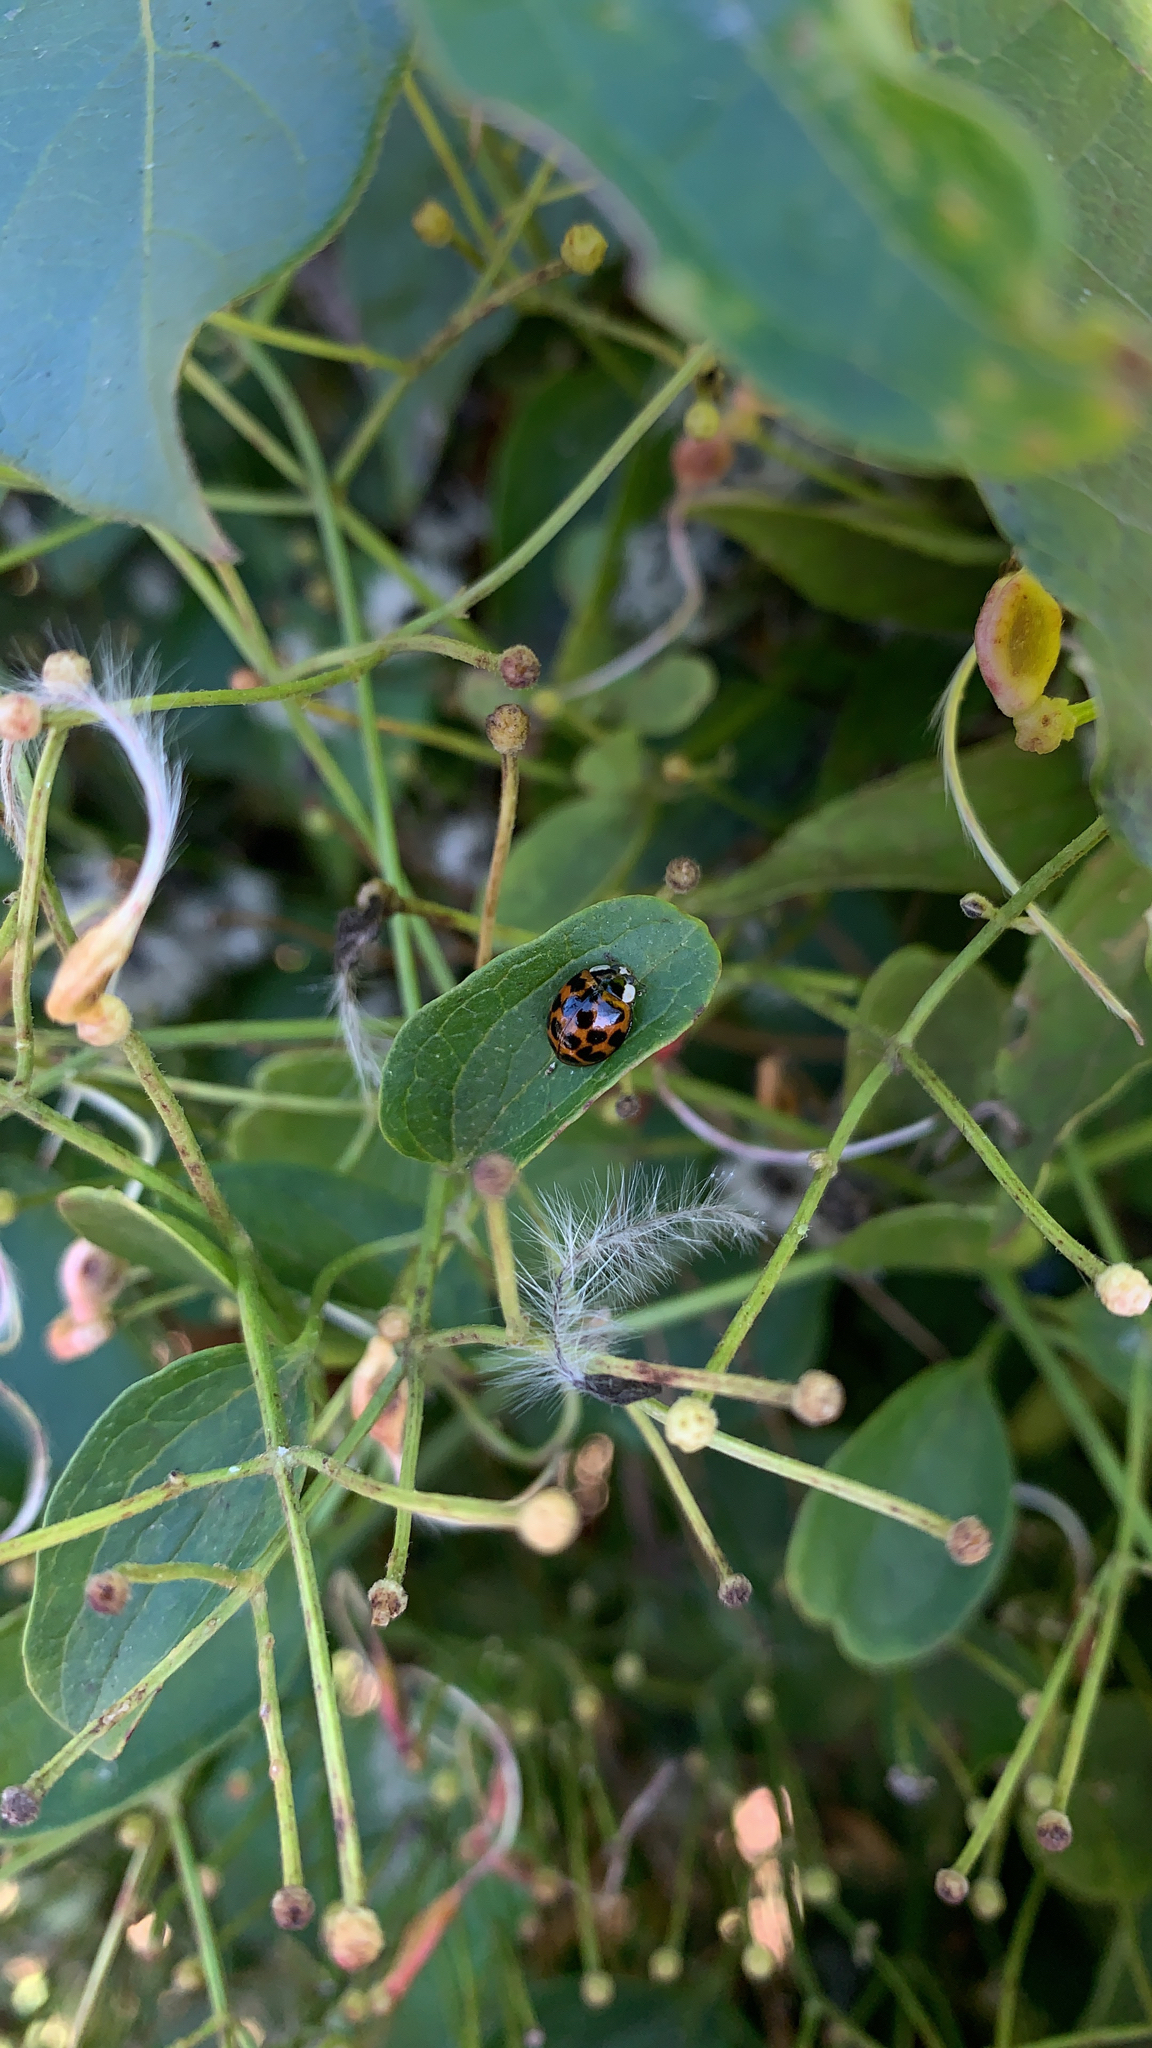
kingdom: Animalia
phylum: Arthropoda
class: Insecta
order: Coleoptera
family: Coccinellidae
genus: Harmonia
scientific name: Harmonia axyridis
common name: Harlequin ladybird
